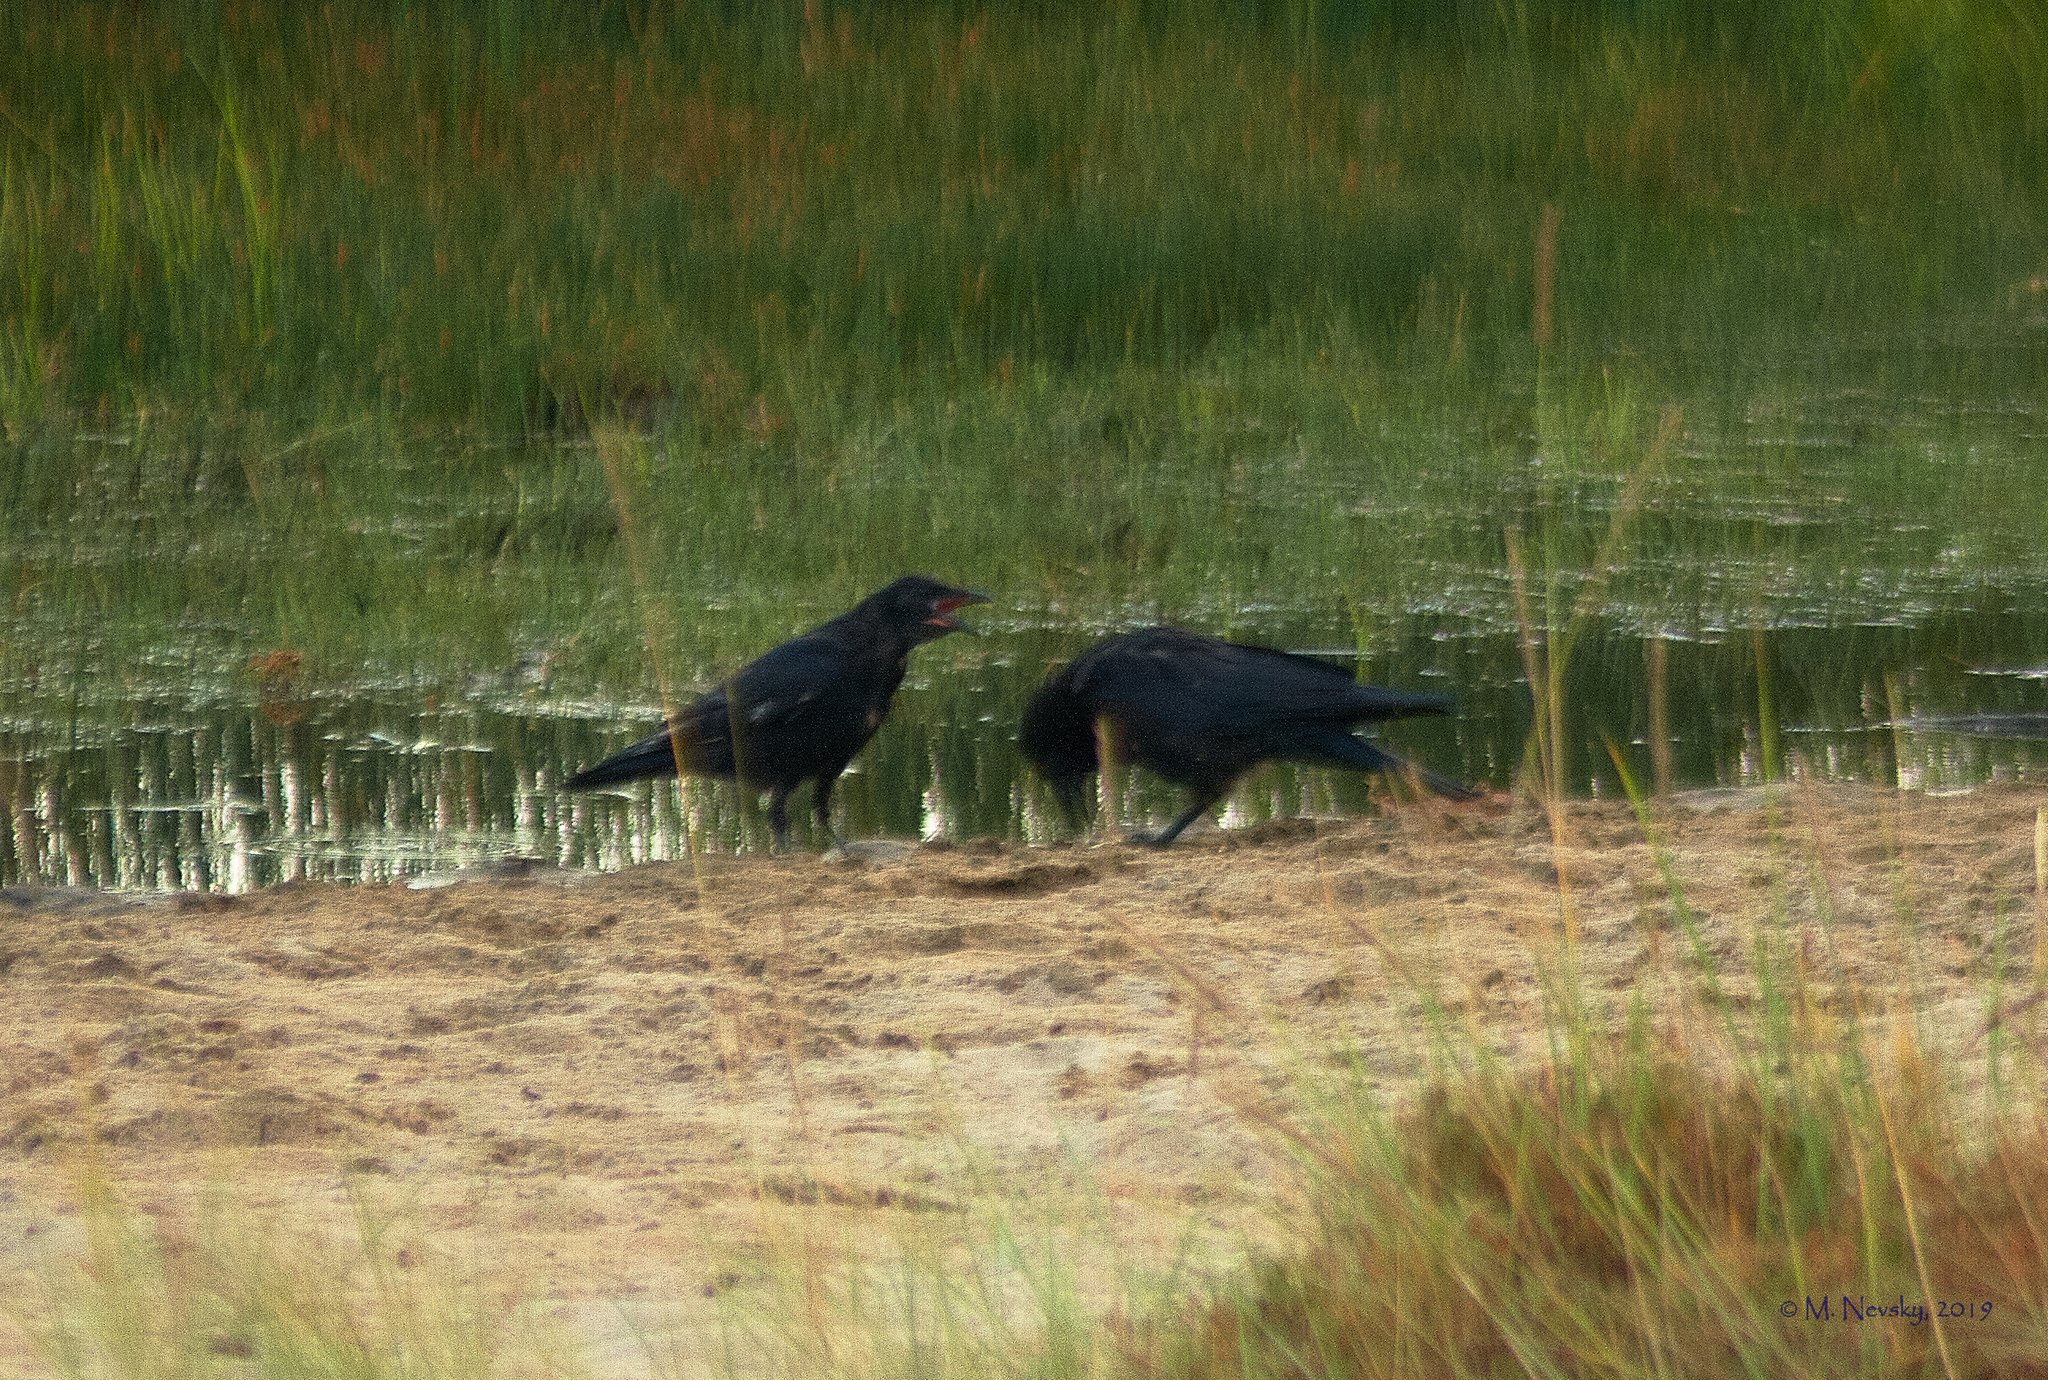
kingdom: Animalia
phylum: Chordata
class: Aves
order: Passeriformes
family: Corvidae
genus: Corvus
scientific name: Corvus corone
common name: Carrion crow
